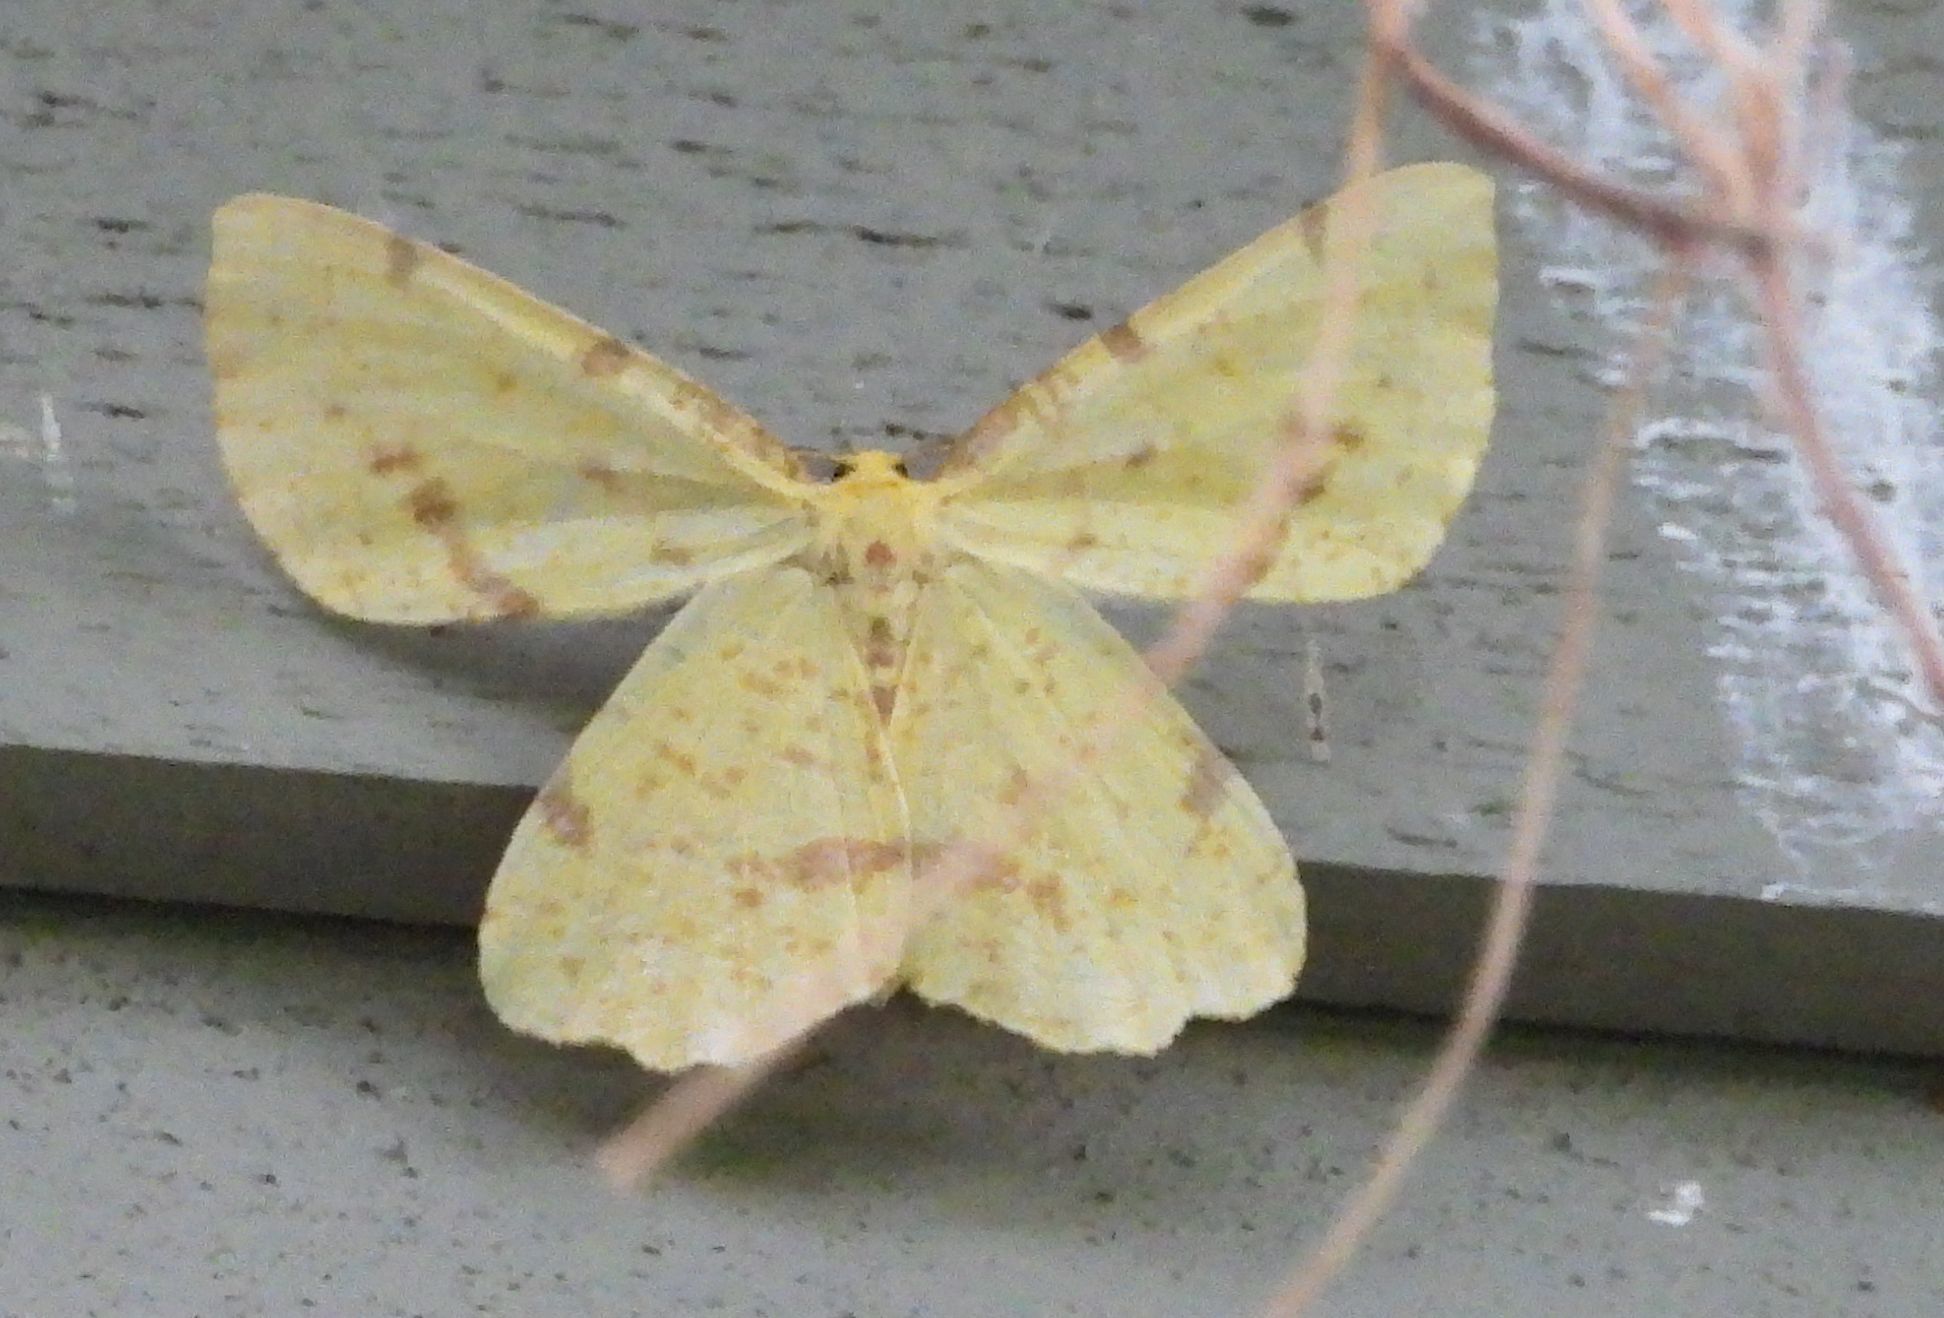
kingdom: Animalia
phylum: Arthropoda
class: Insecta
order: Lepidoptera
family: Geometridae
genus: Xanthotype
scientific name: Xanthotype
